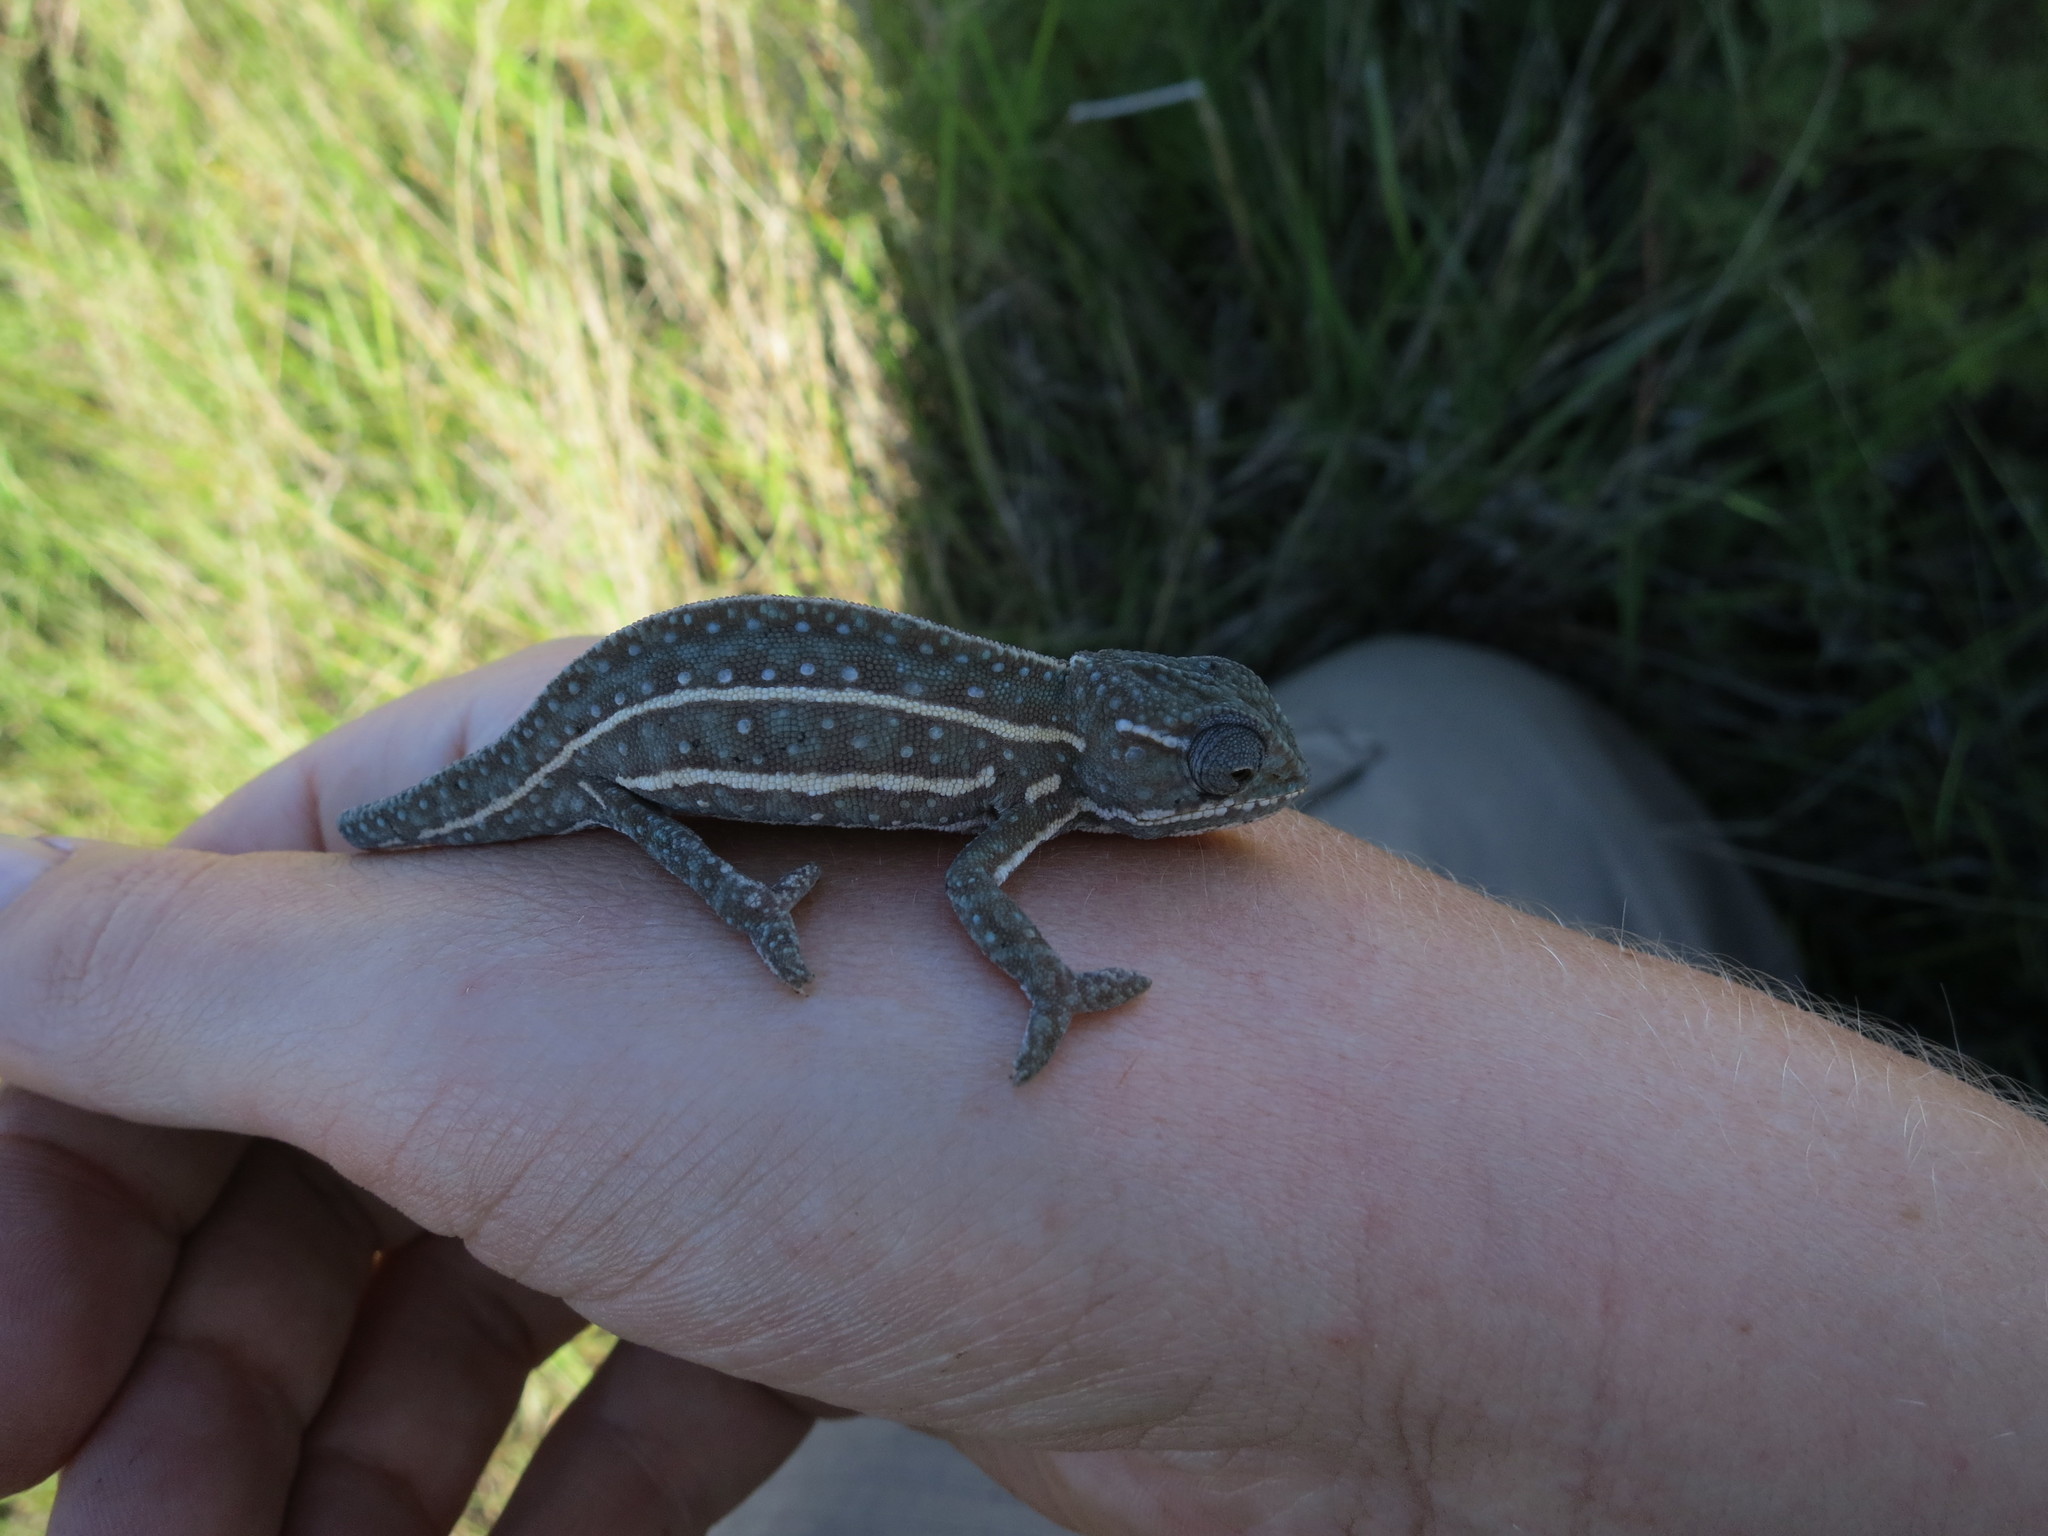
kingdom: Animalia
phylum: Chordata
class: Squamata
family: Chamaeleonidae
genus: Furcifer
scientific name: Furcifer campani
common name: Campan’s chameleon
